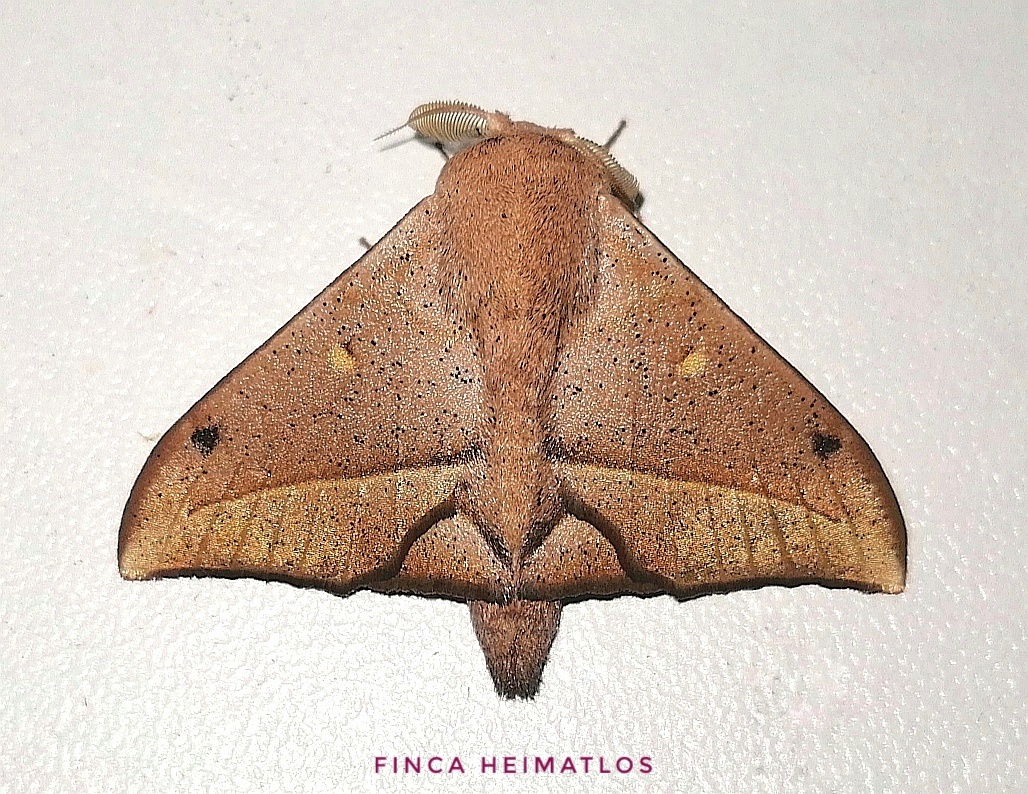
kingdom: Animalia
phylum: Arthropoda
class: Insecta
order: Lepidoptera
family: Mimallonidae
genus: Druentica
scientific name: Druentica partha
